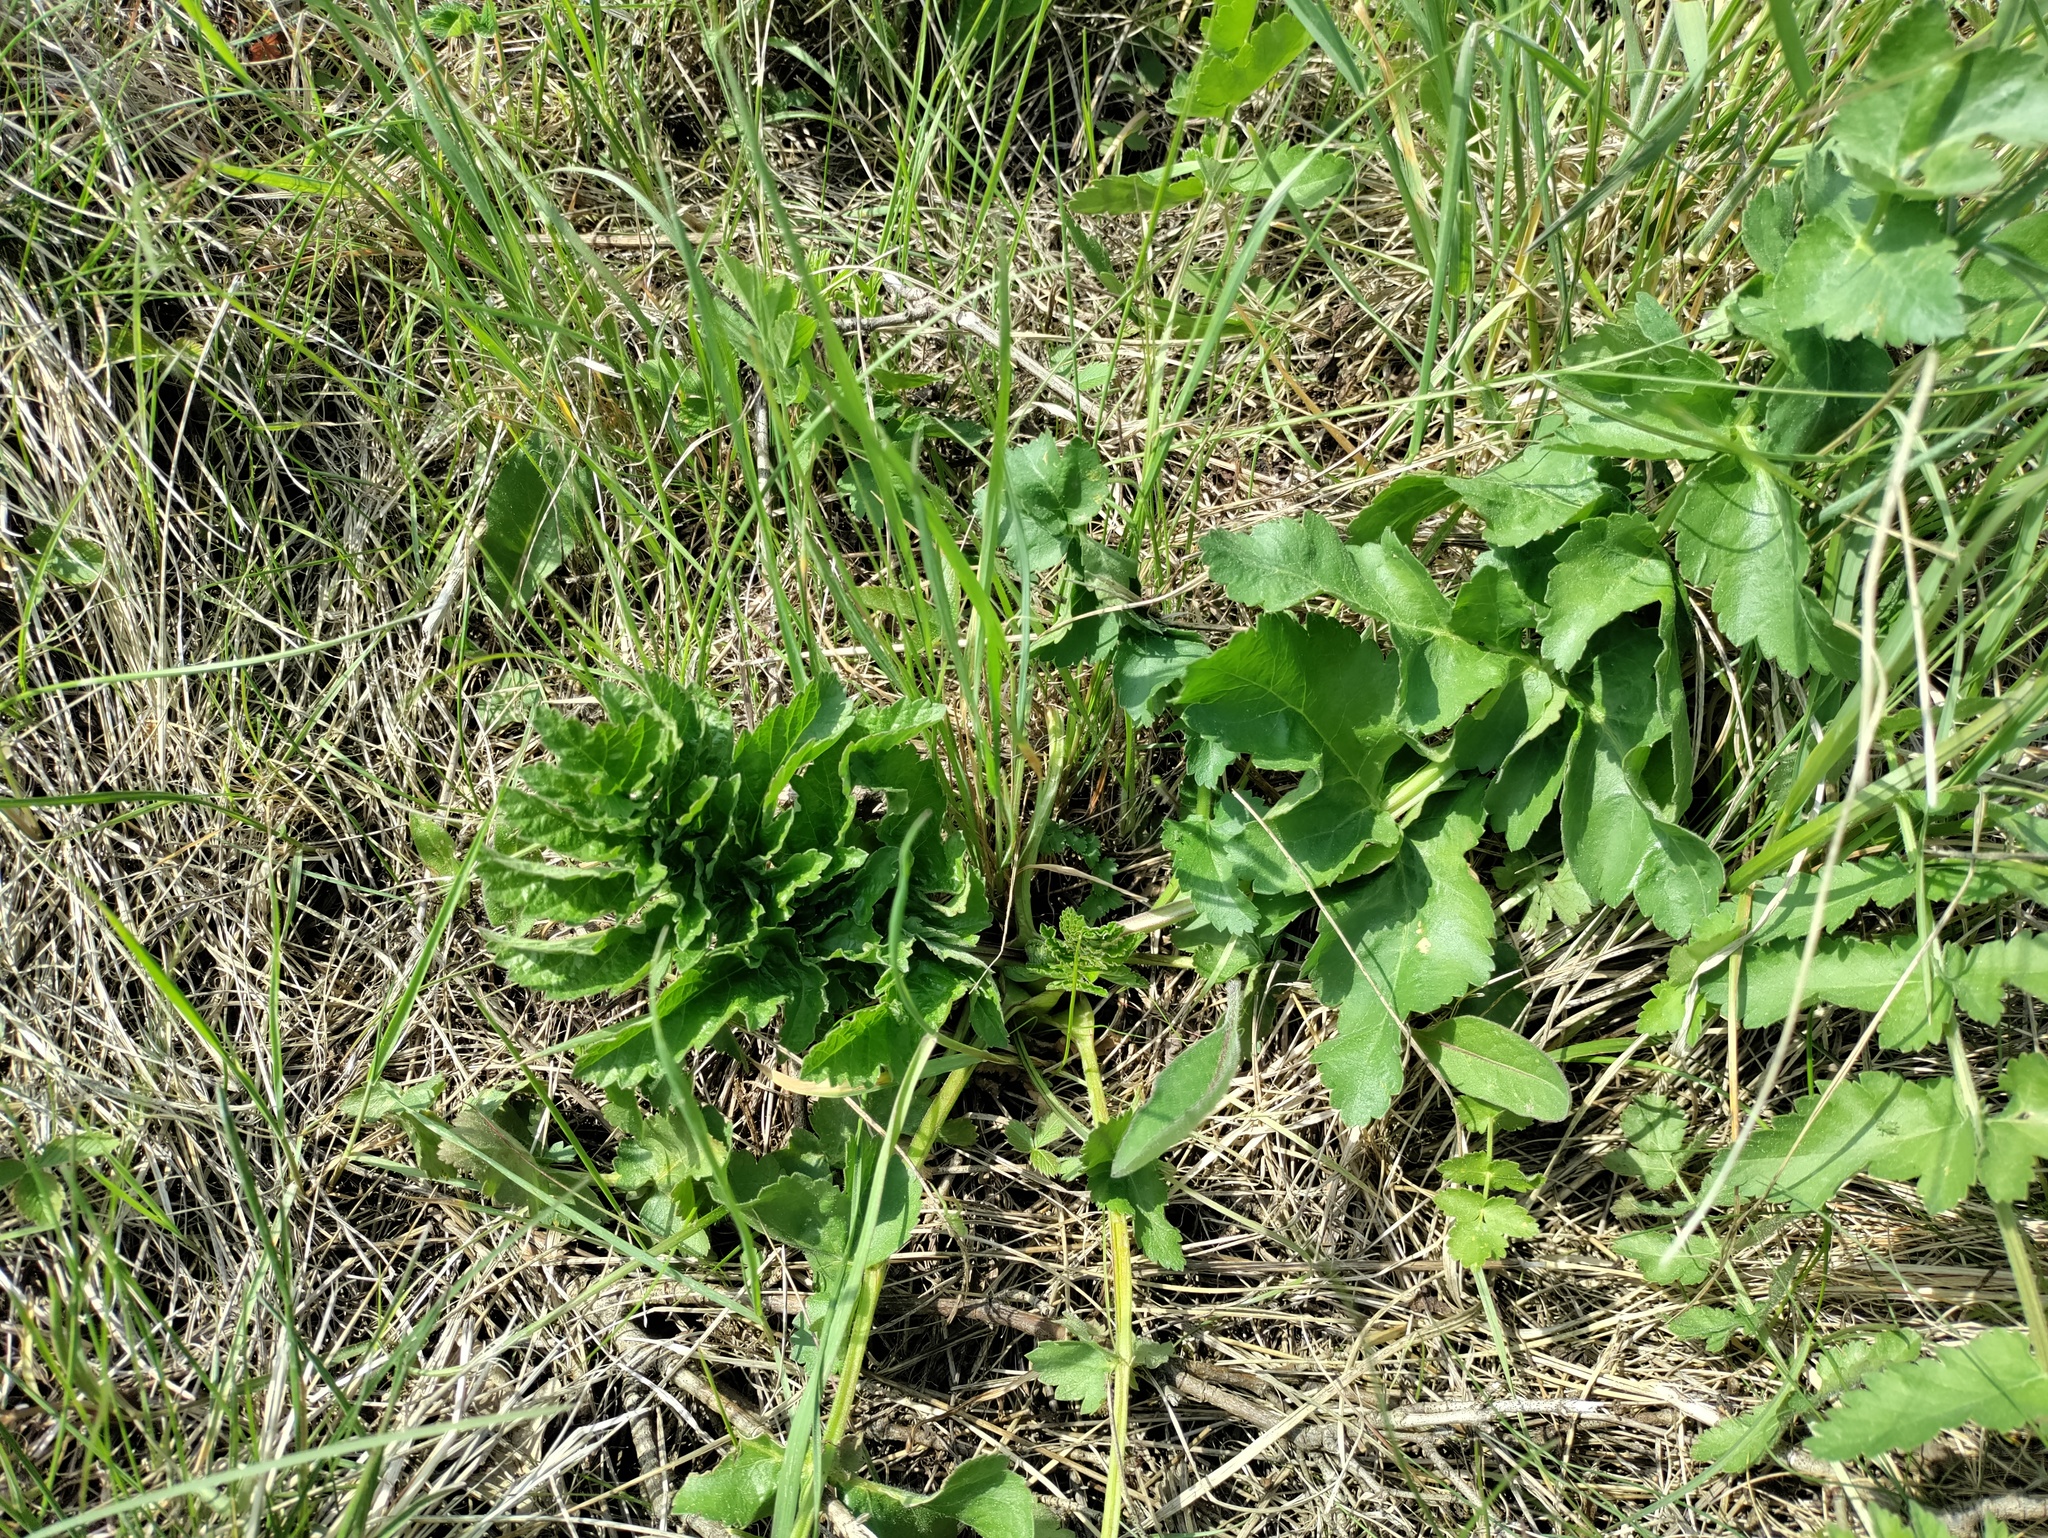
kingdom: Plantae
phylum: Tracheophyta
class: Magnoliopsida
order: Apiales
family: Apiaceae
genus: Pastinaca
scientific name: Pastinaca sativa
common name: Wild parsnip
